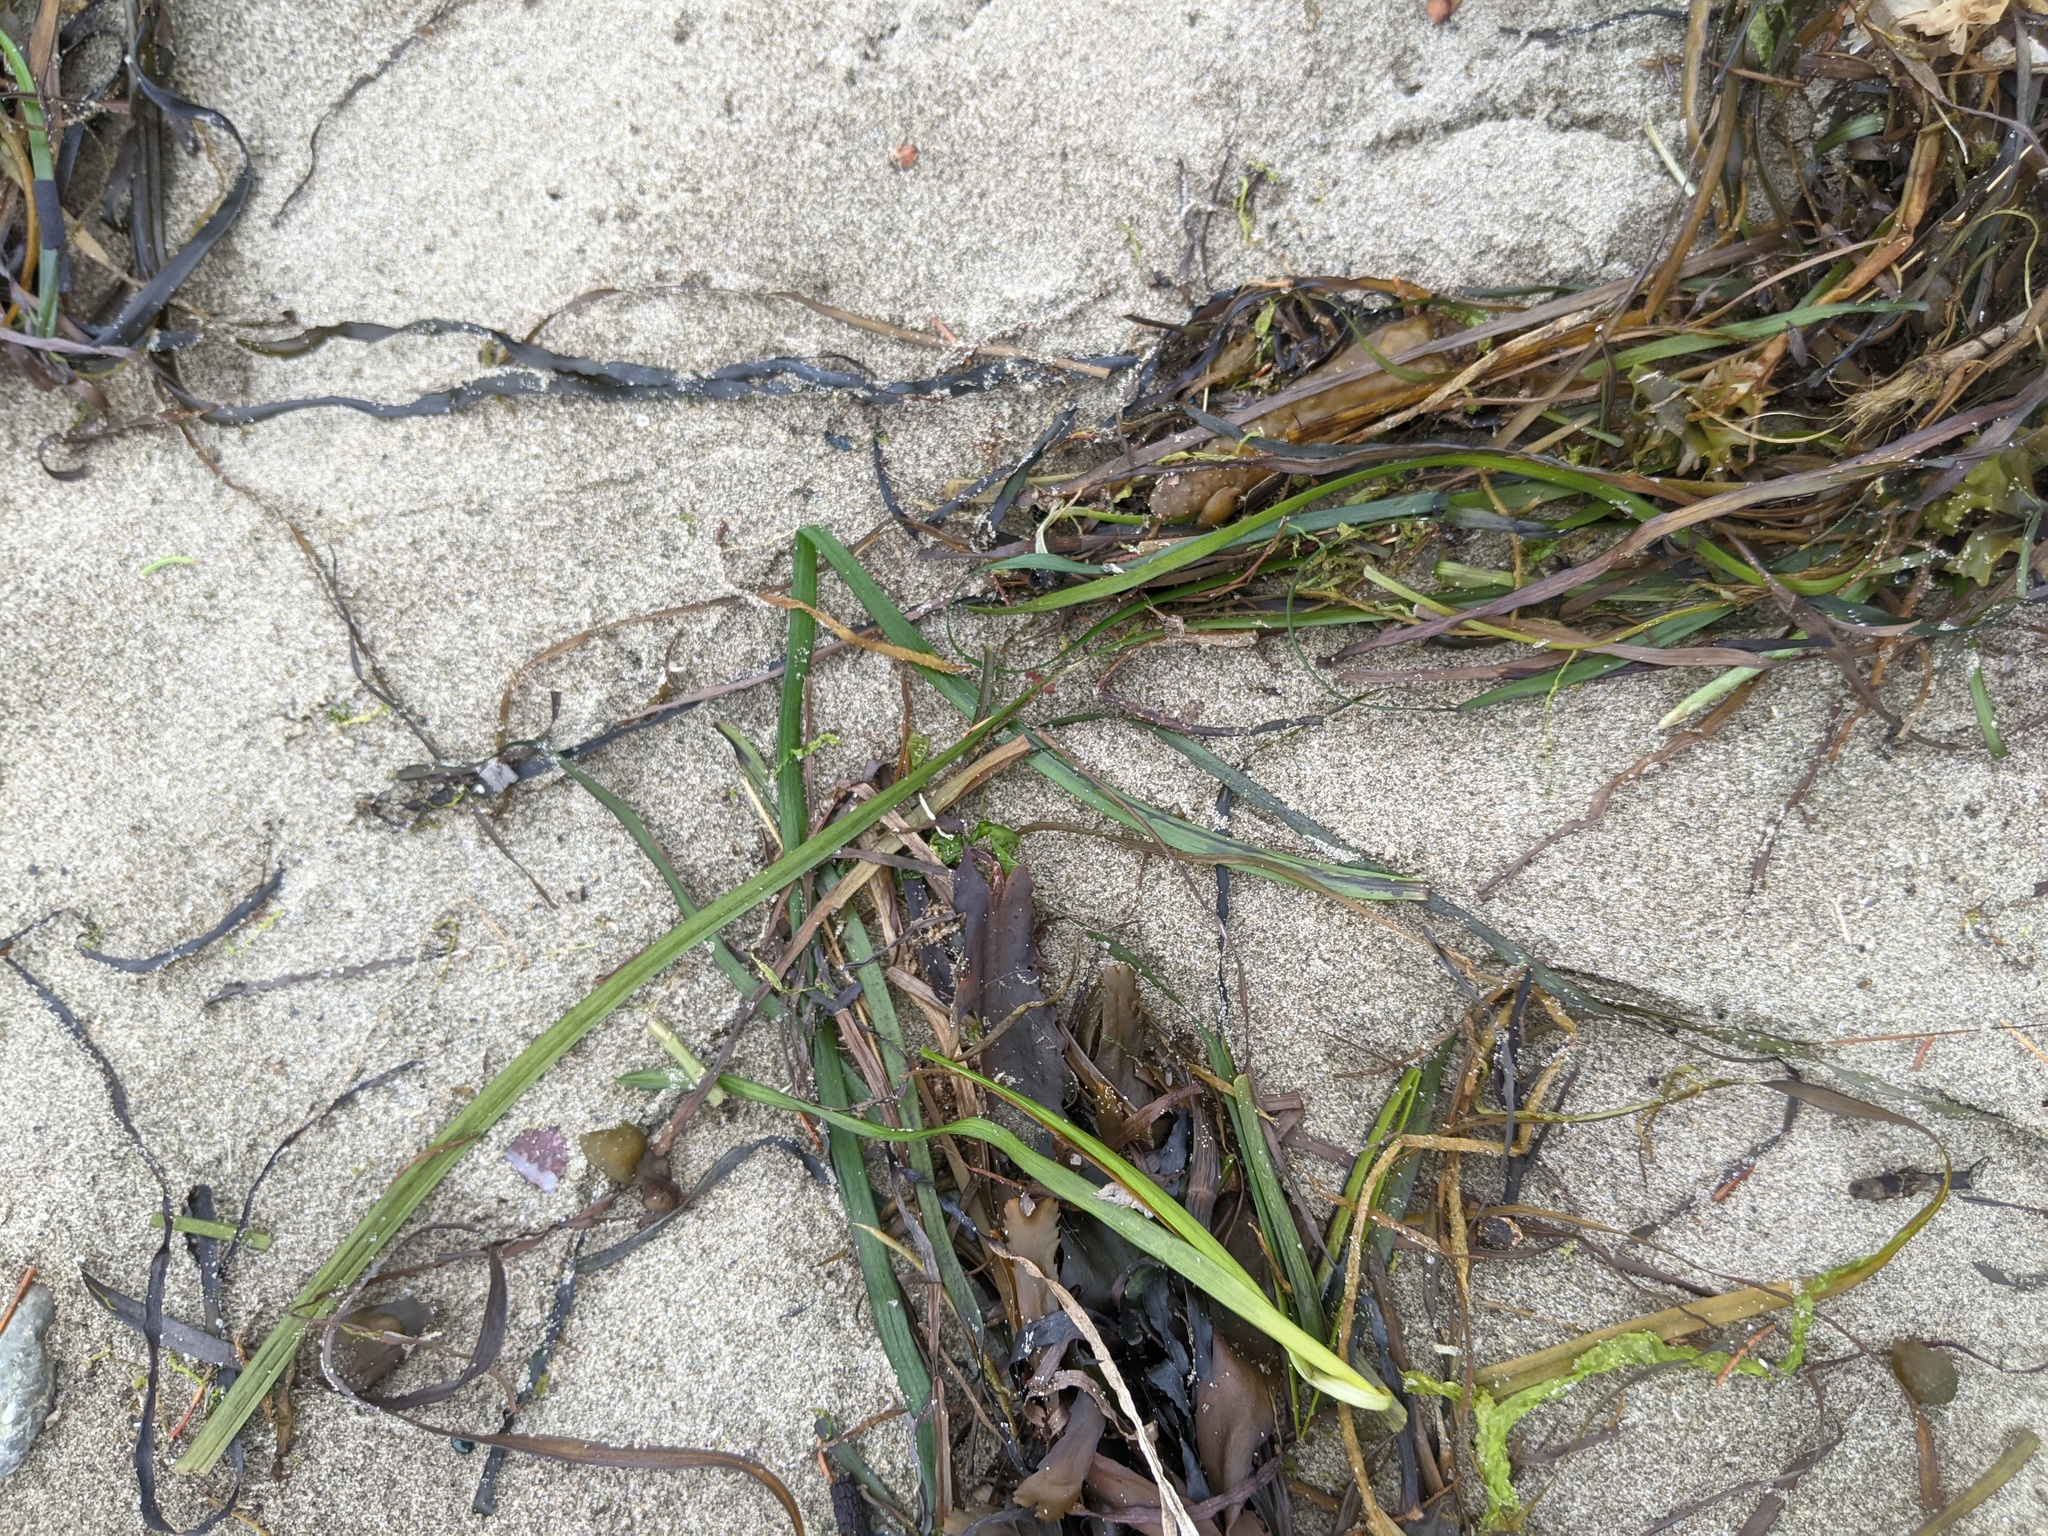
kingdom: Plantae
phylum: Tracheophyta
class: Liliopsida
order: Alismatales
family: Zosteraceae
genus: Zostera
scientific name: Zostera marina
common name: Eelgrass
